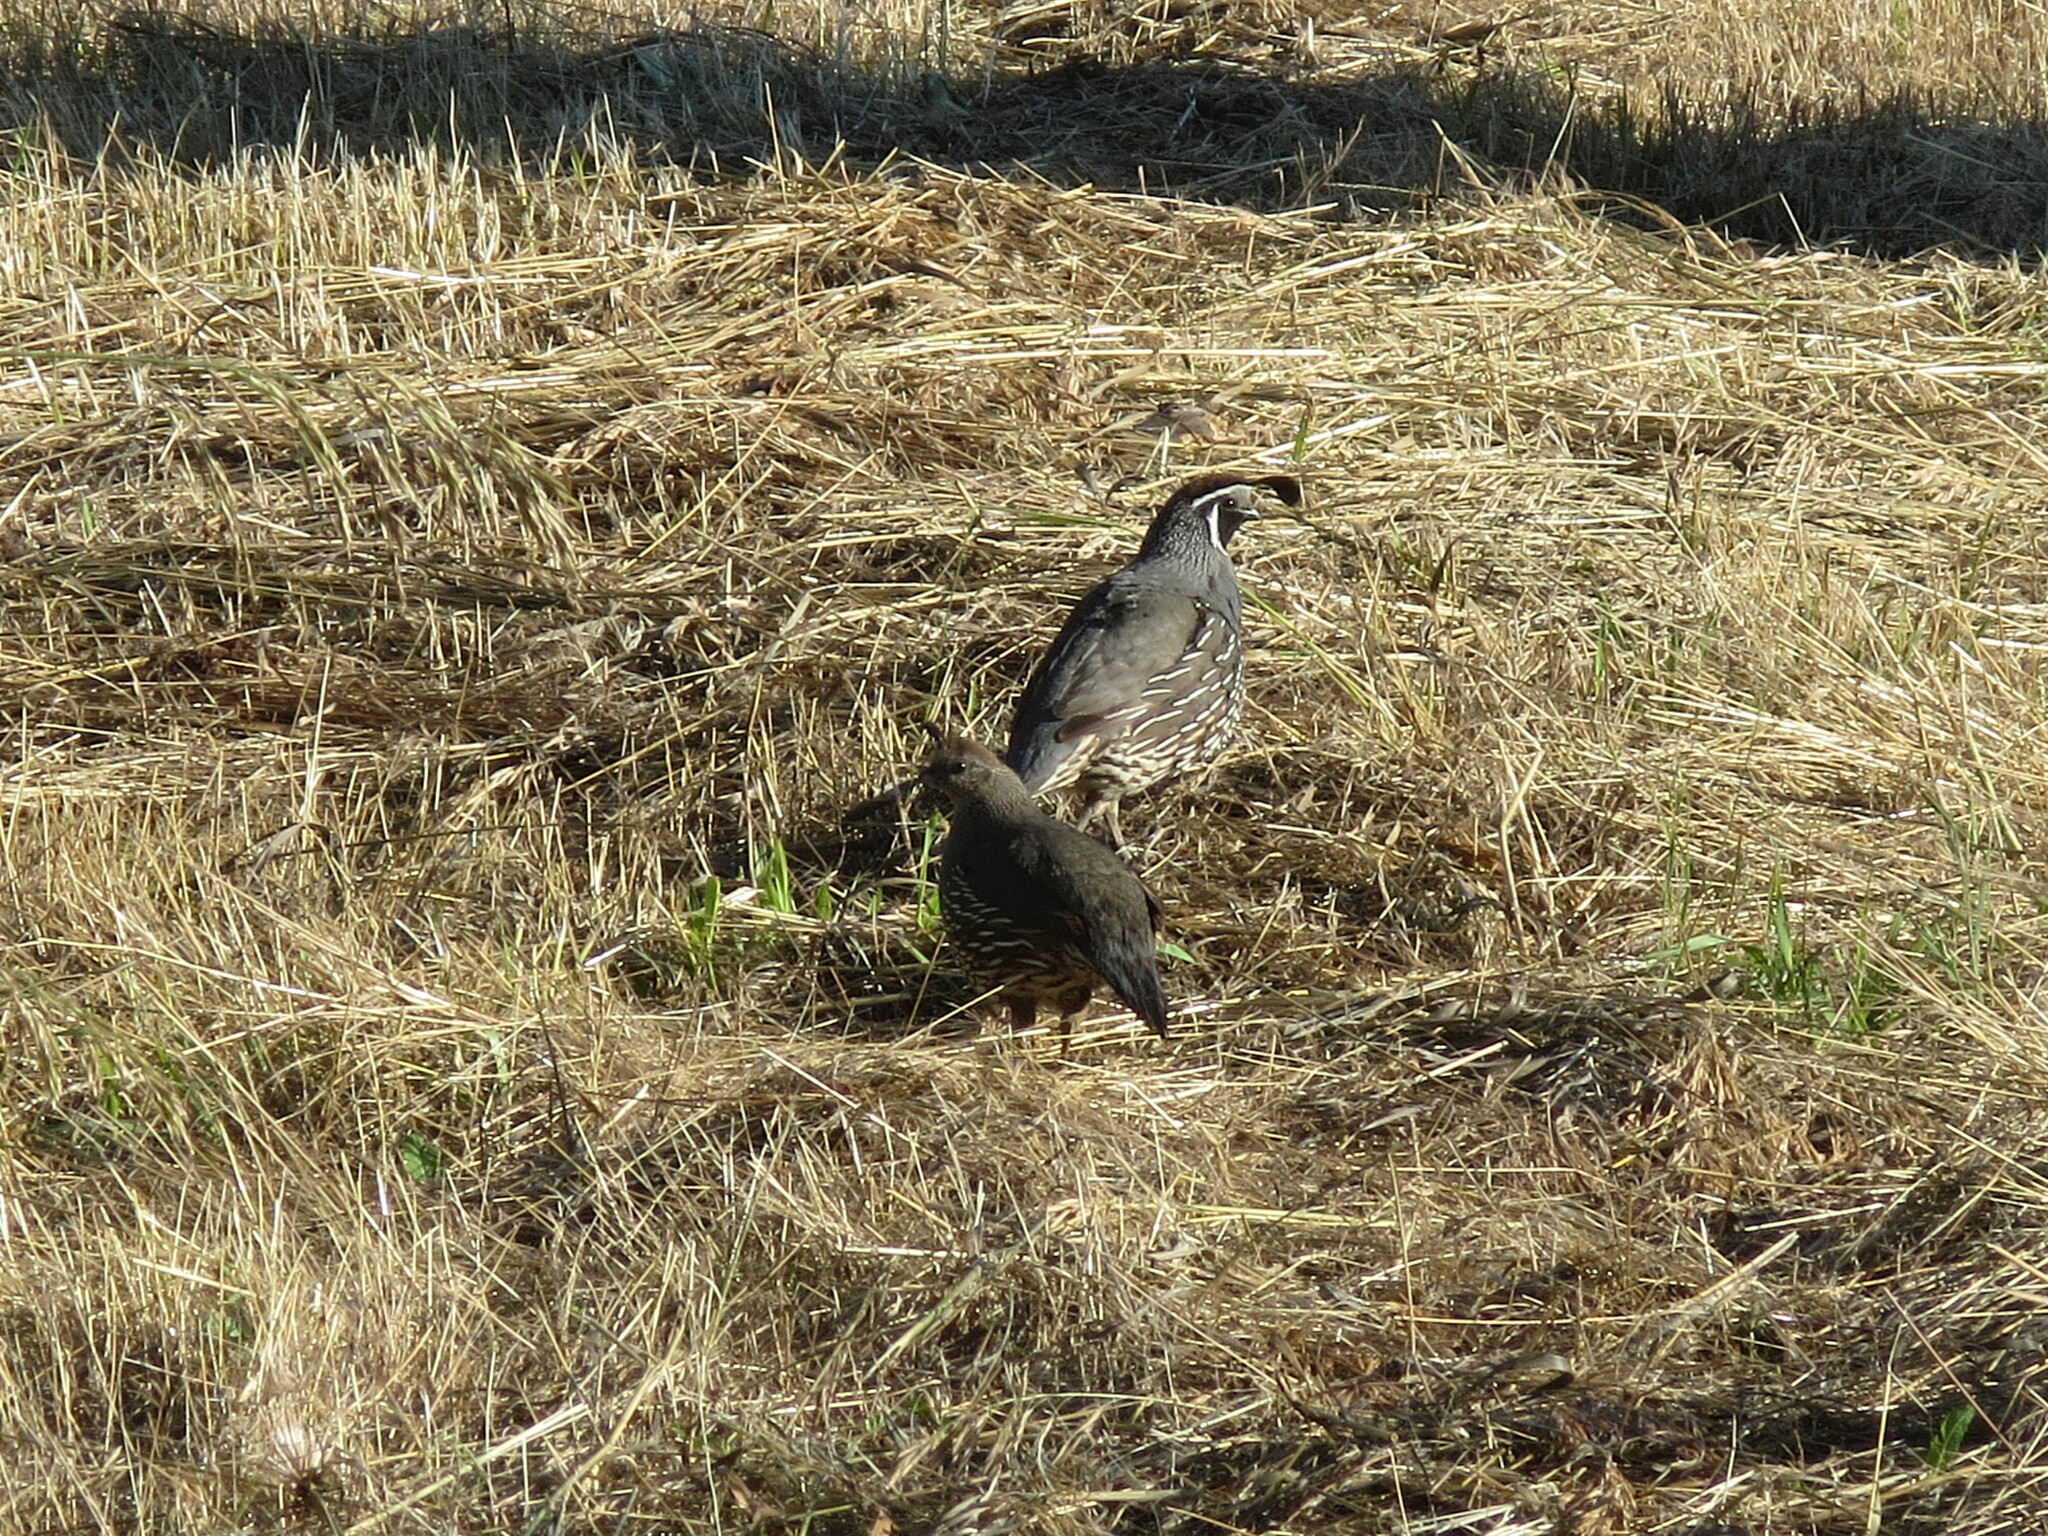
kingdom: Animalia
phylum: Chordata
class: Aves
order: Galliformes
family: Odontophoridae
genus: Callipepla
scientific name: Callipepla californica
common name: California quail
